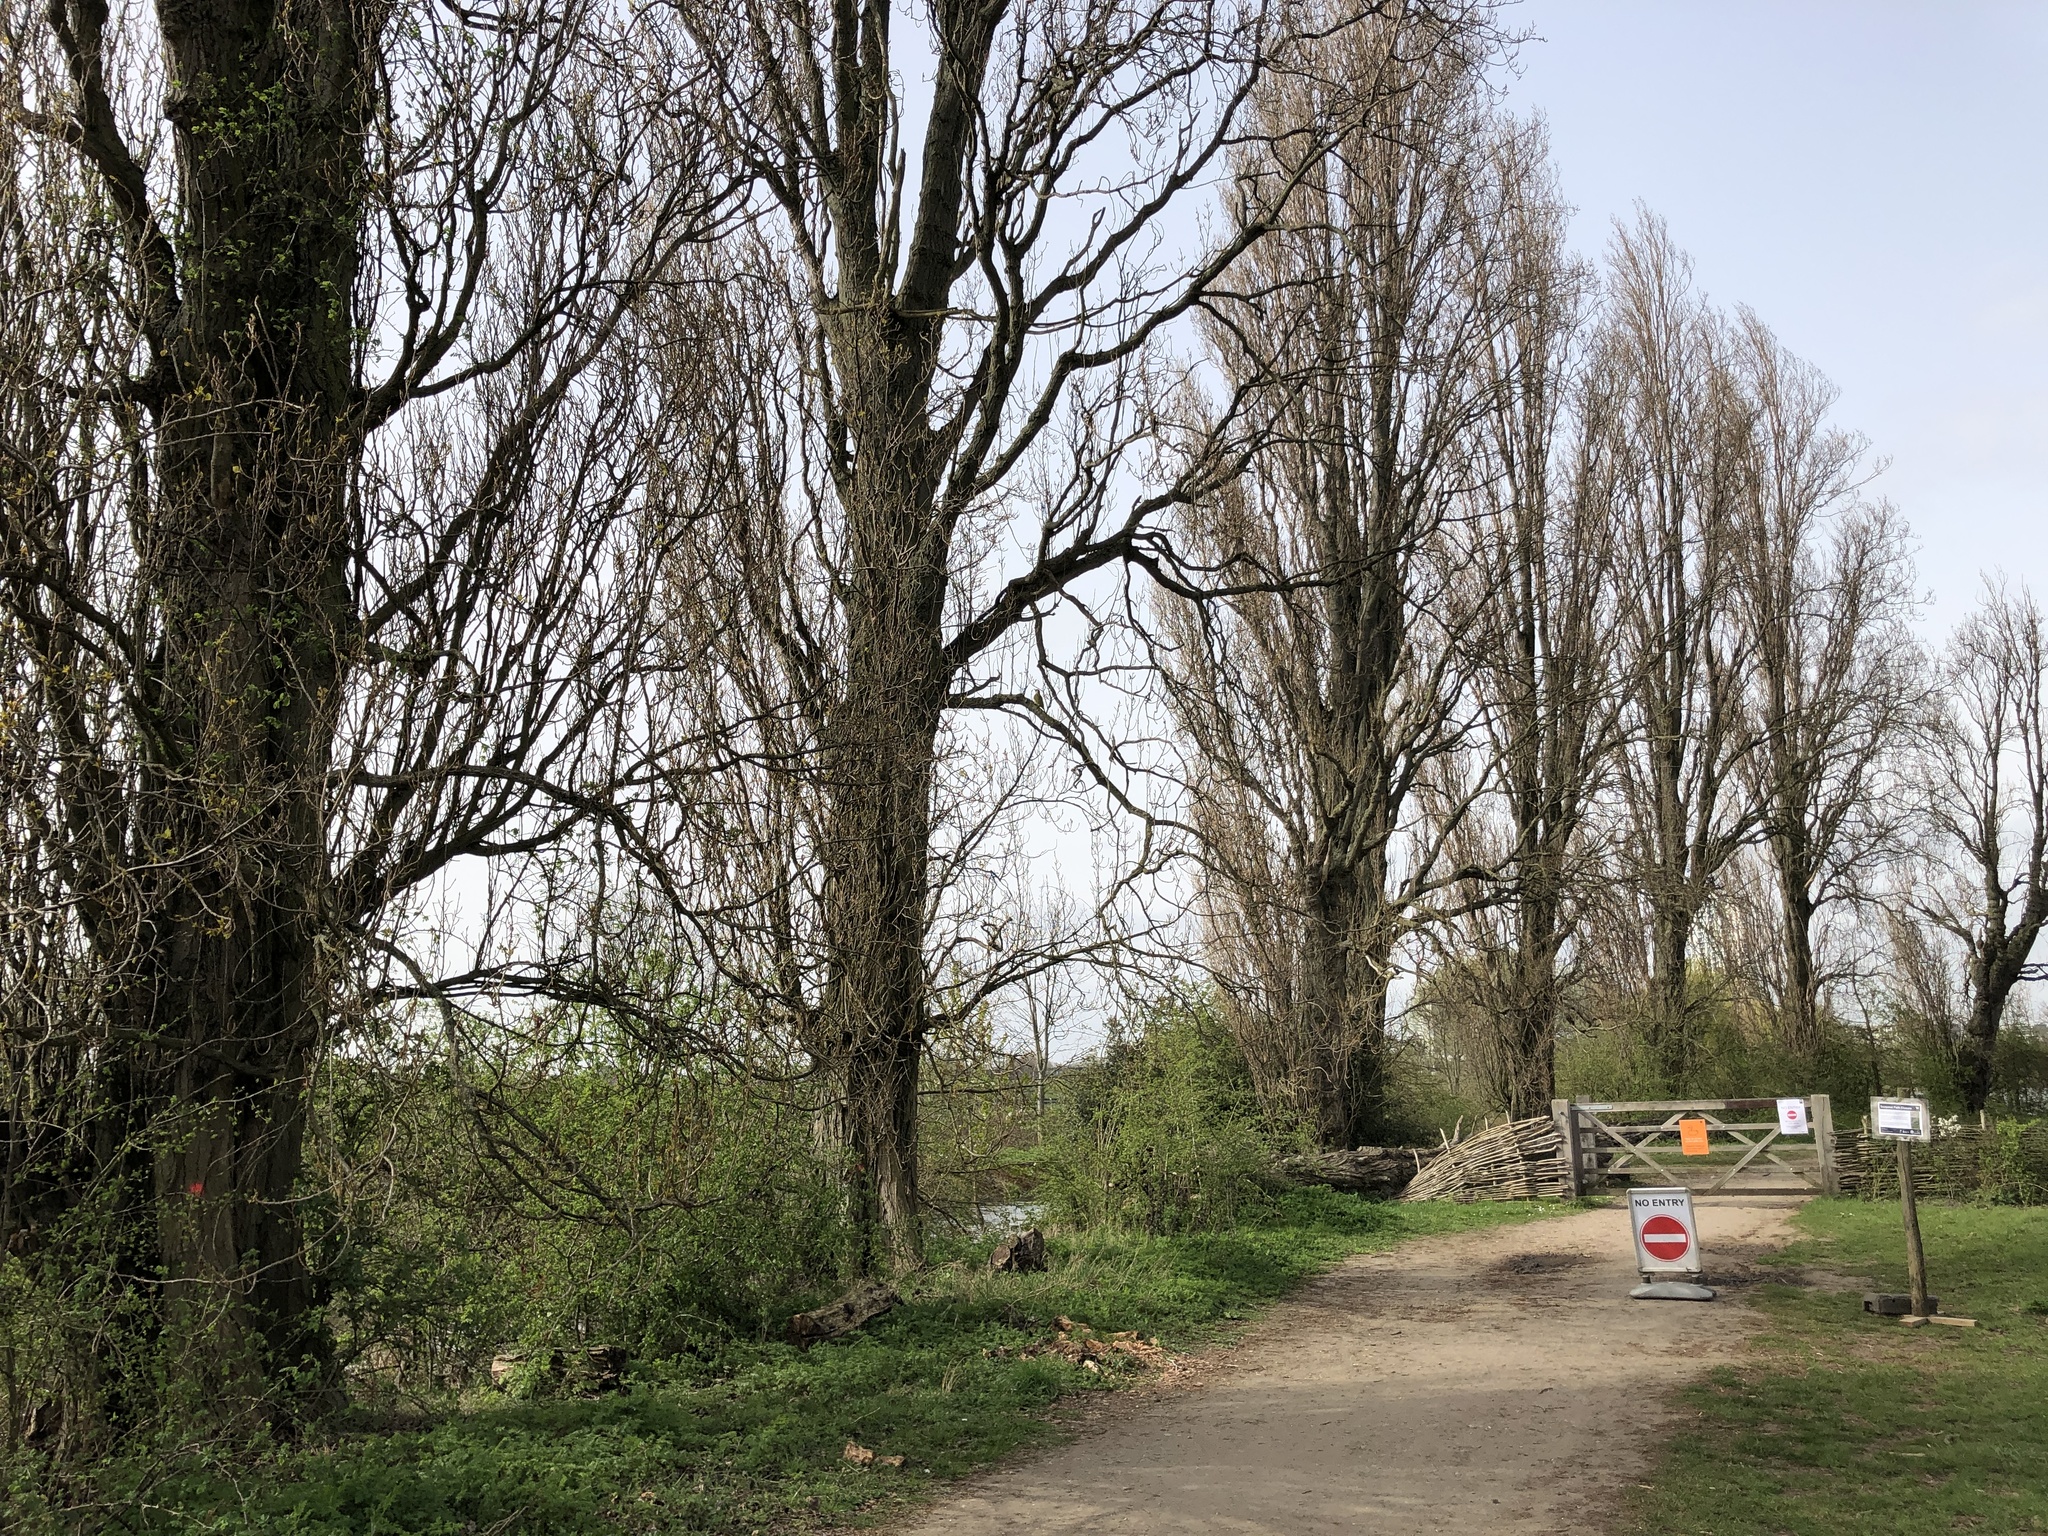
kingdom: Animalia
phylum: Chordata
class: Aves
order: Piciformes
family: Picidae
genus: Picus
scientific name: Picus viridis
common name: European green woodpecker
